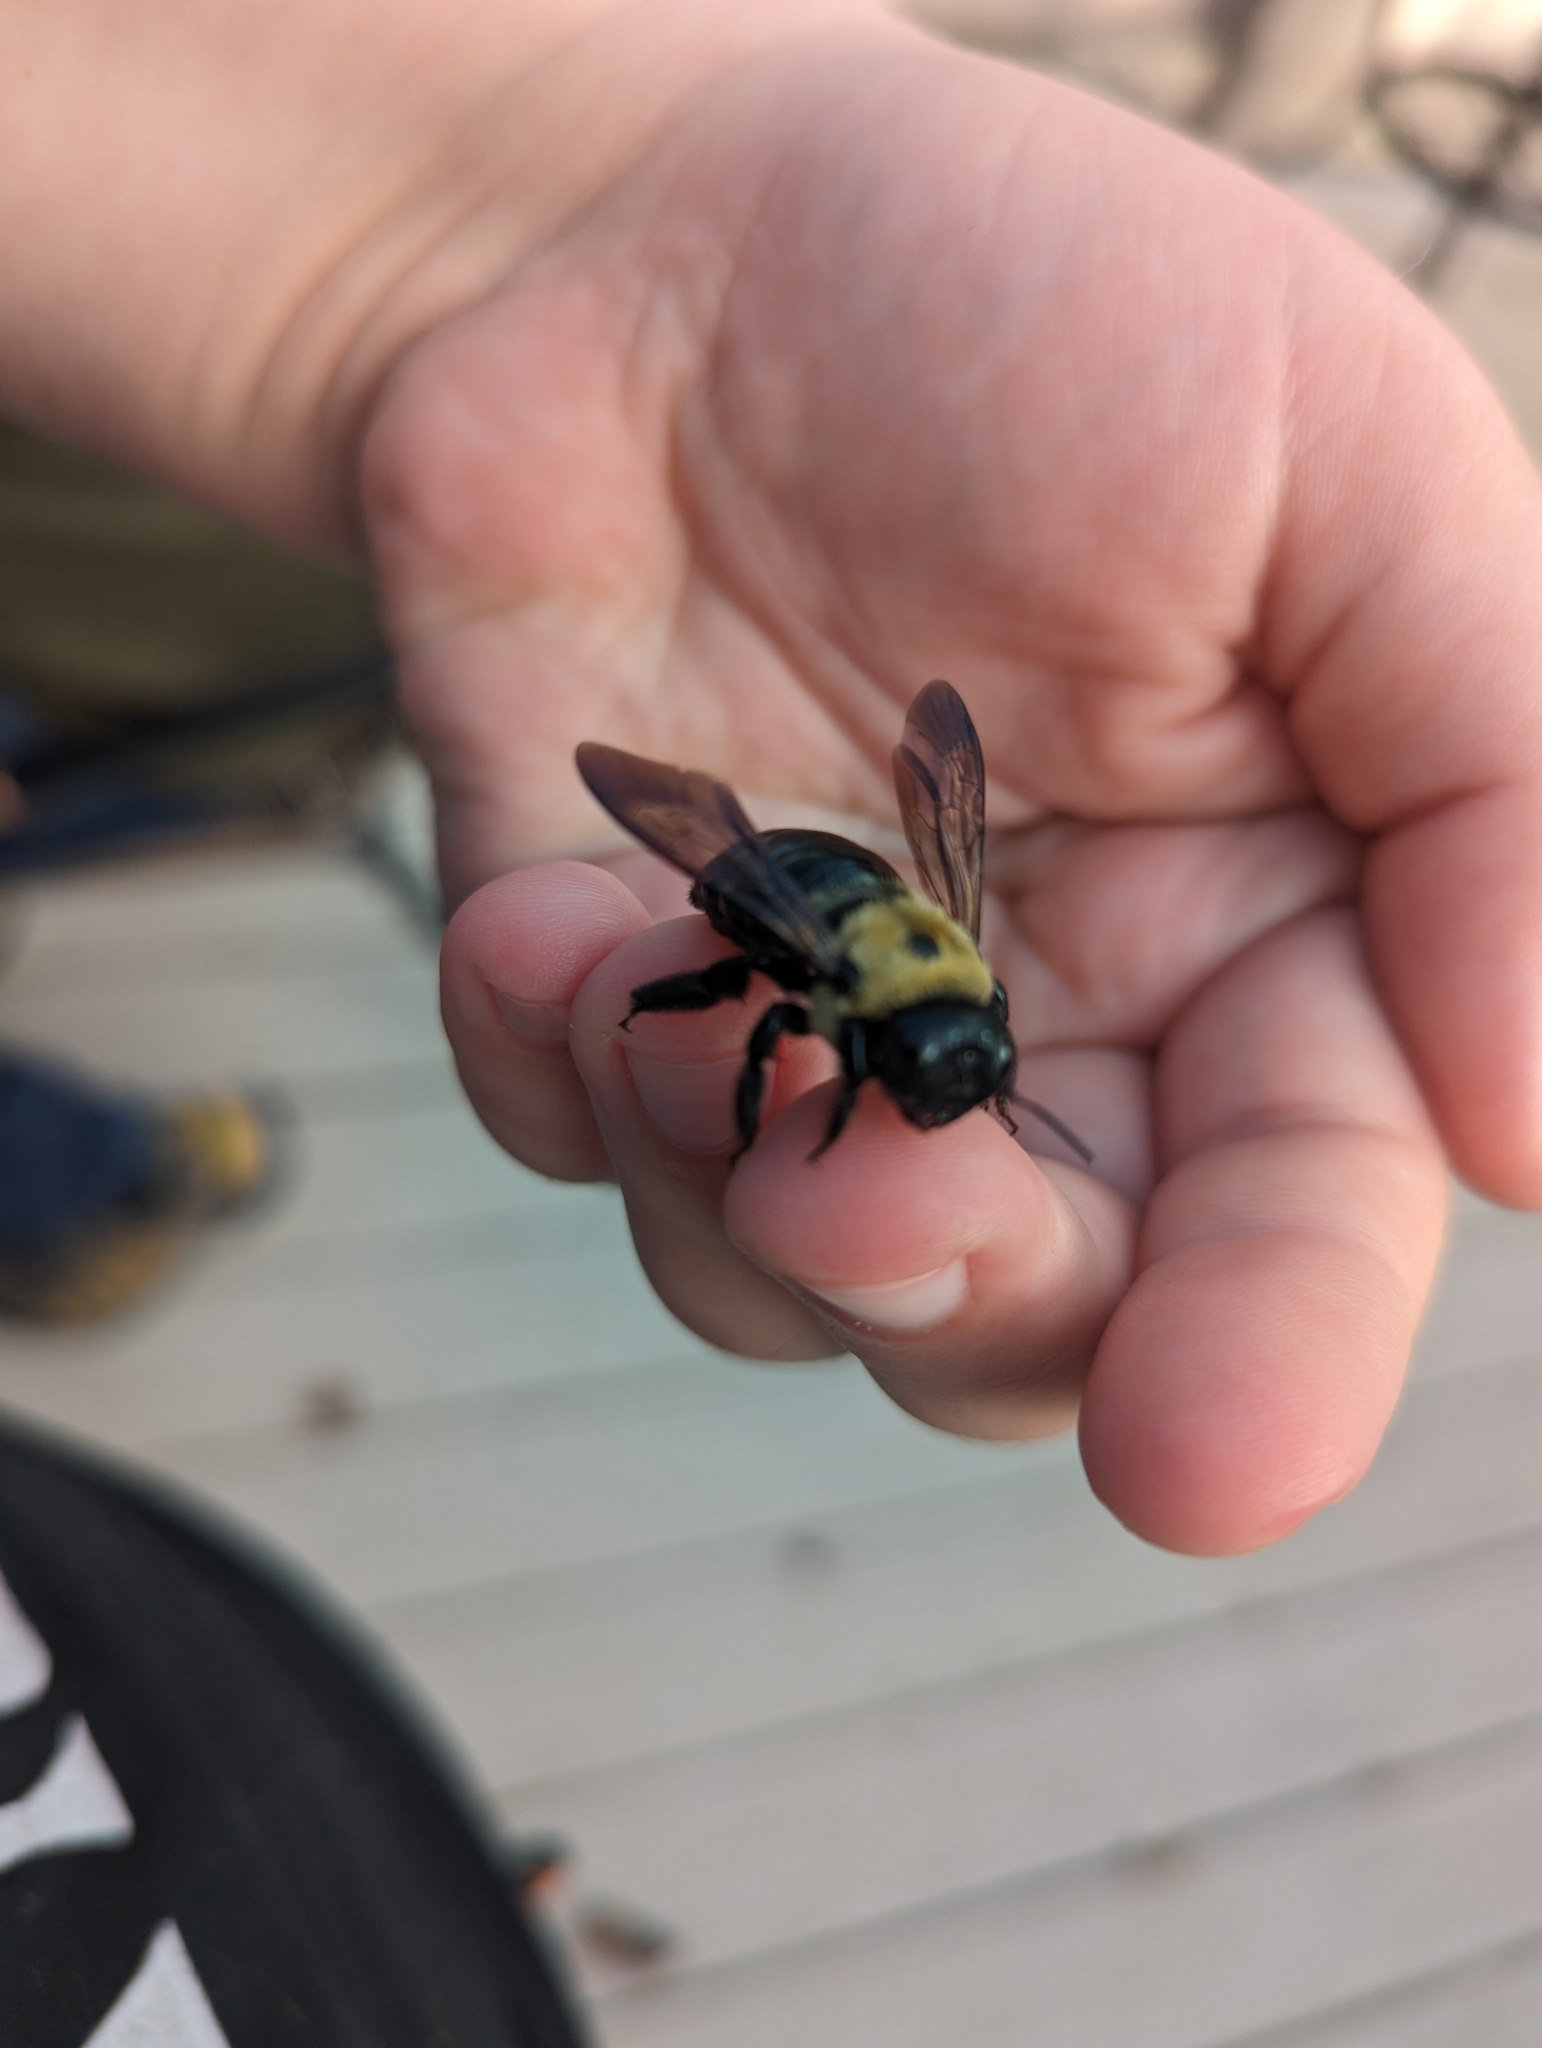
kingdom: Animalia
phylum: Arthropoda
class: Insecta
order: Hymenoptera
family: Apidae
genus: Xylocopa
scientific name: Xylocopa virginica
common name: Carpenter bee
